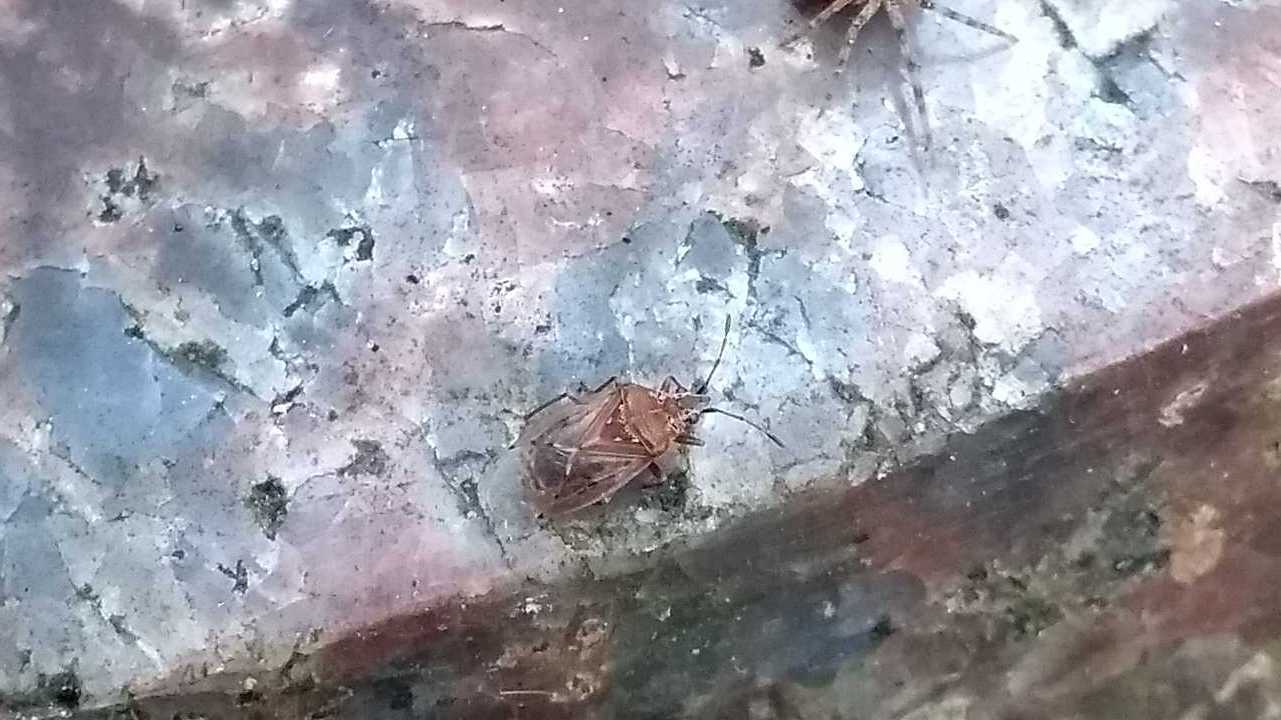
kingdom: Animalia
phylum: Arthropoda
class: Insecta
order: Hemiptera
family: Lygaeidae
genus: Kleidocerys
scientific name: Kleidocerys resedae
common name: Birch catkin bug
